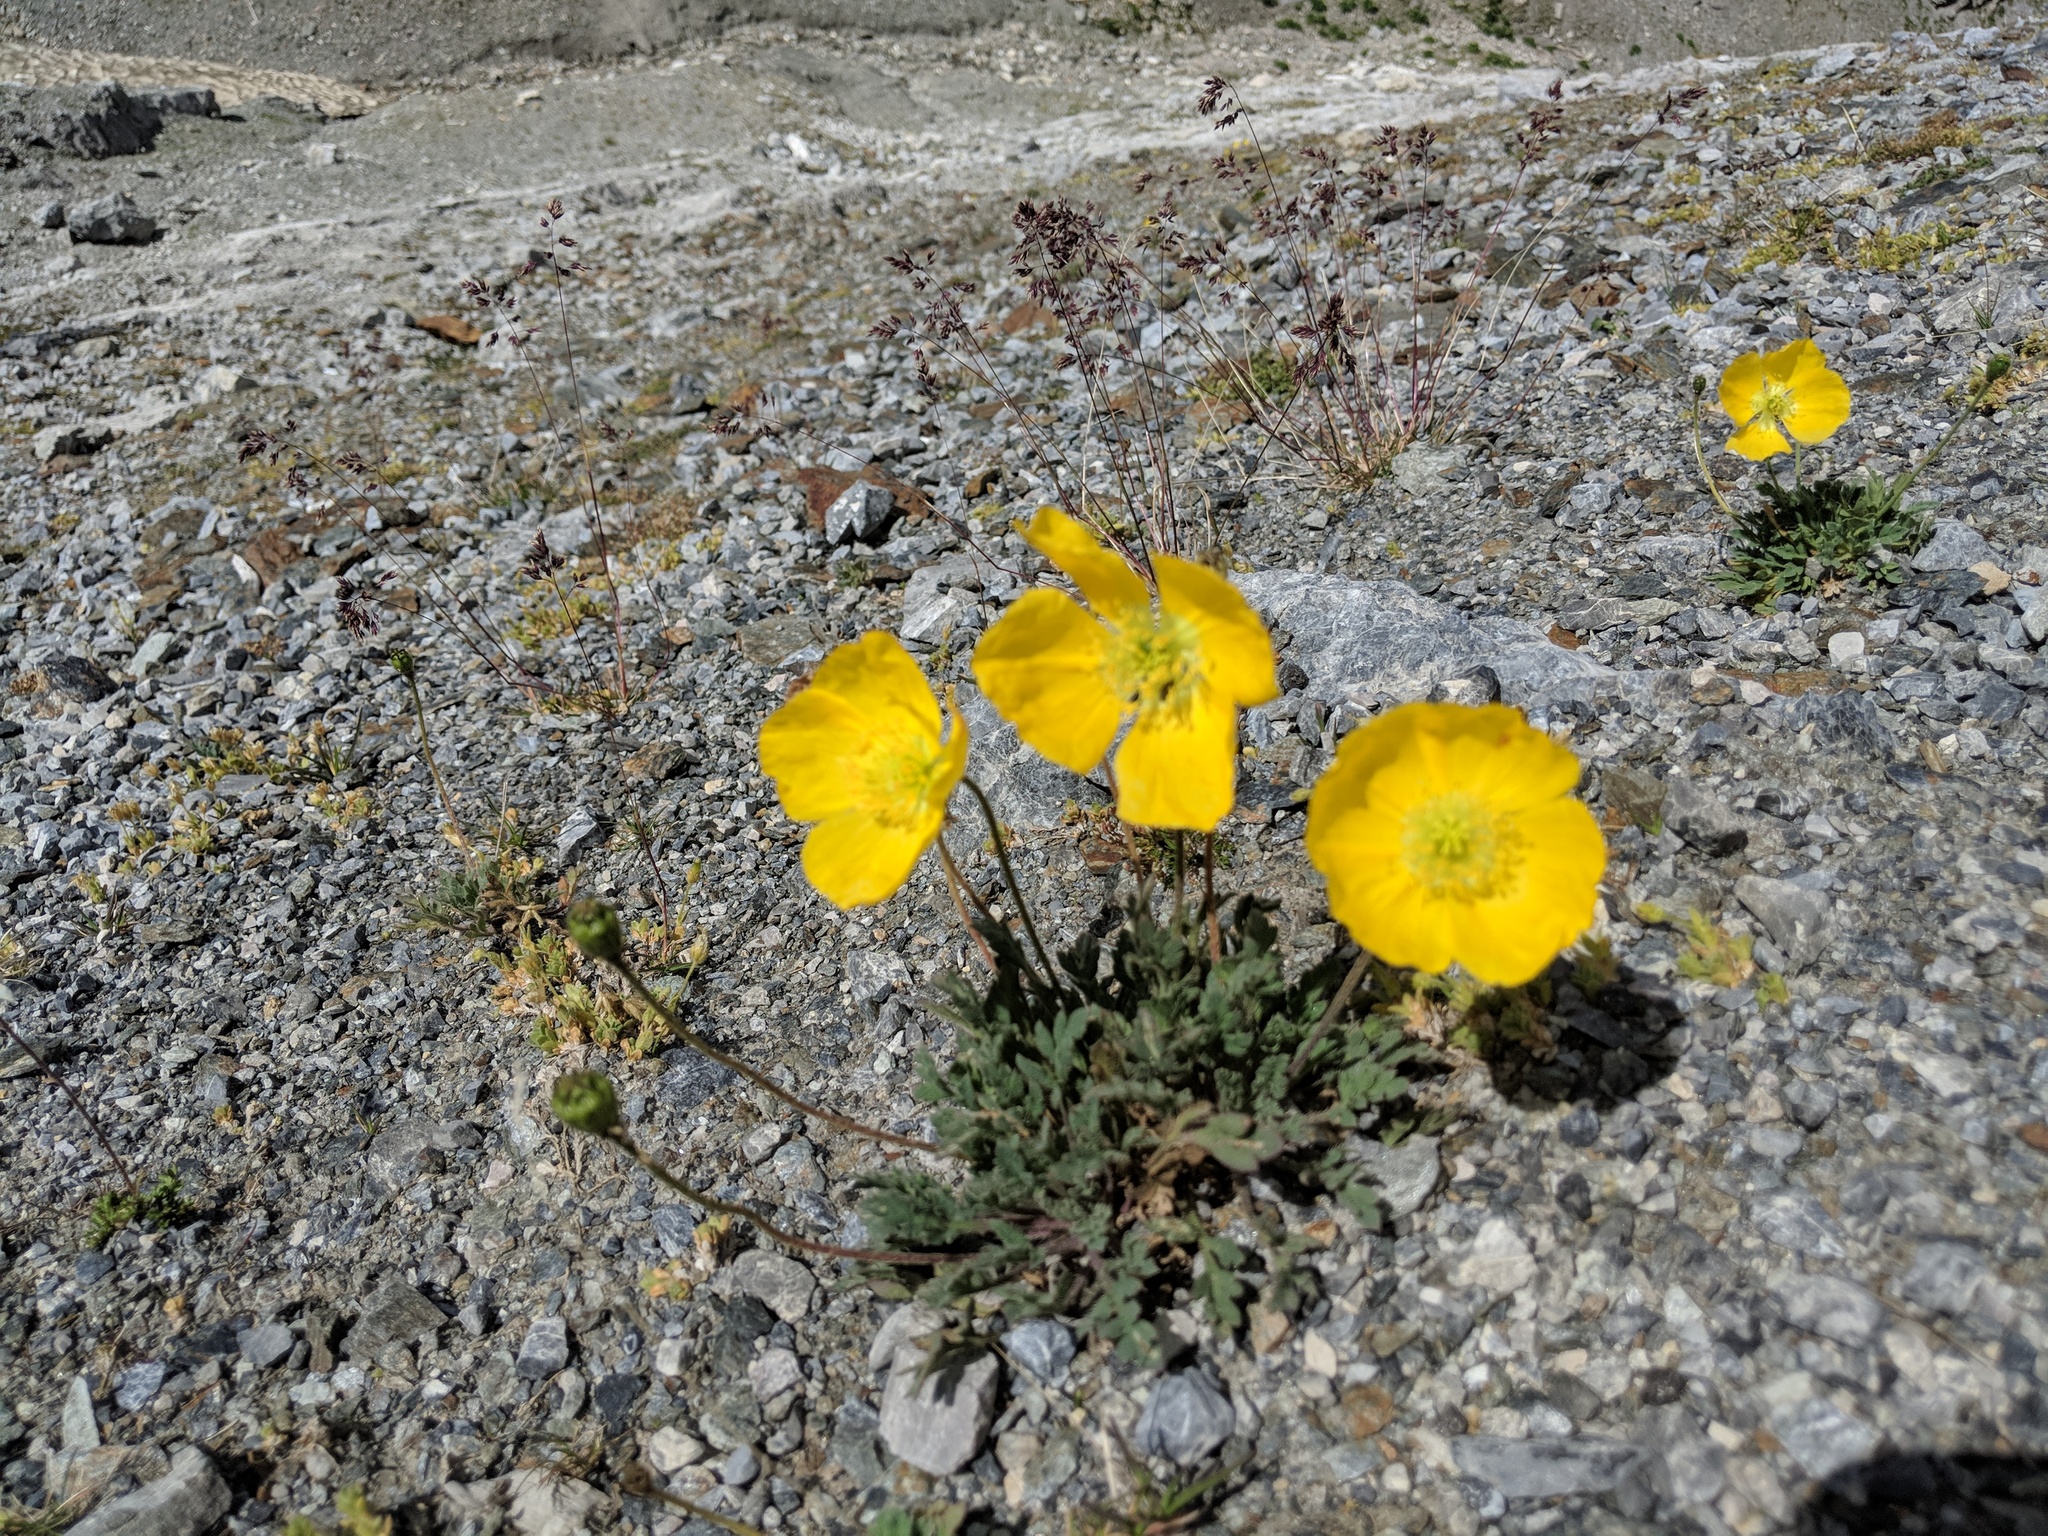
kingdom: Plantae
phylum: Tracheophyta
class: Magnoliopsida
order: Ranunculales
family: Papaveraceae
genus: Papaver
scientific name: Papaver alpinum
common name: Austrian poppy
